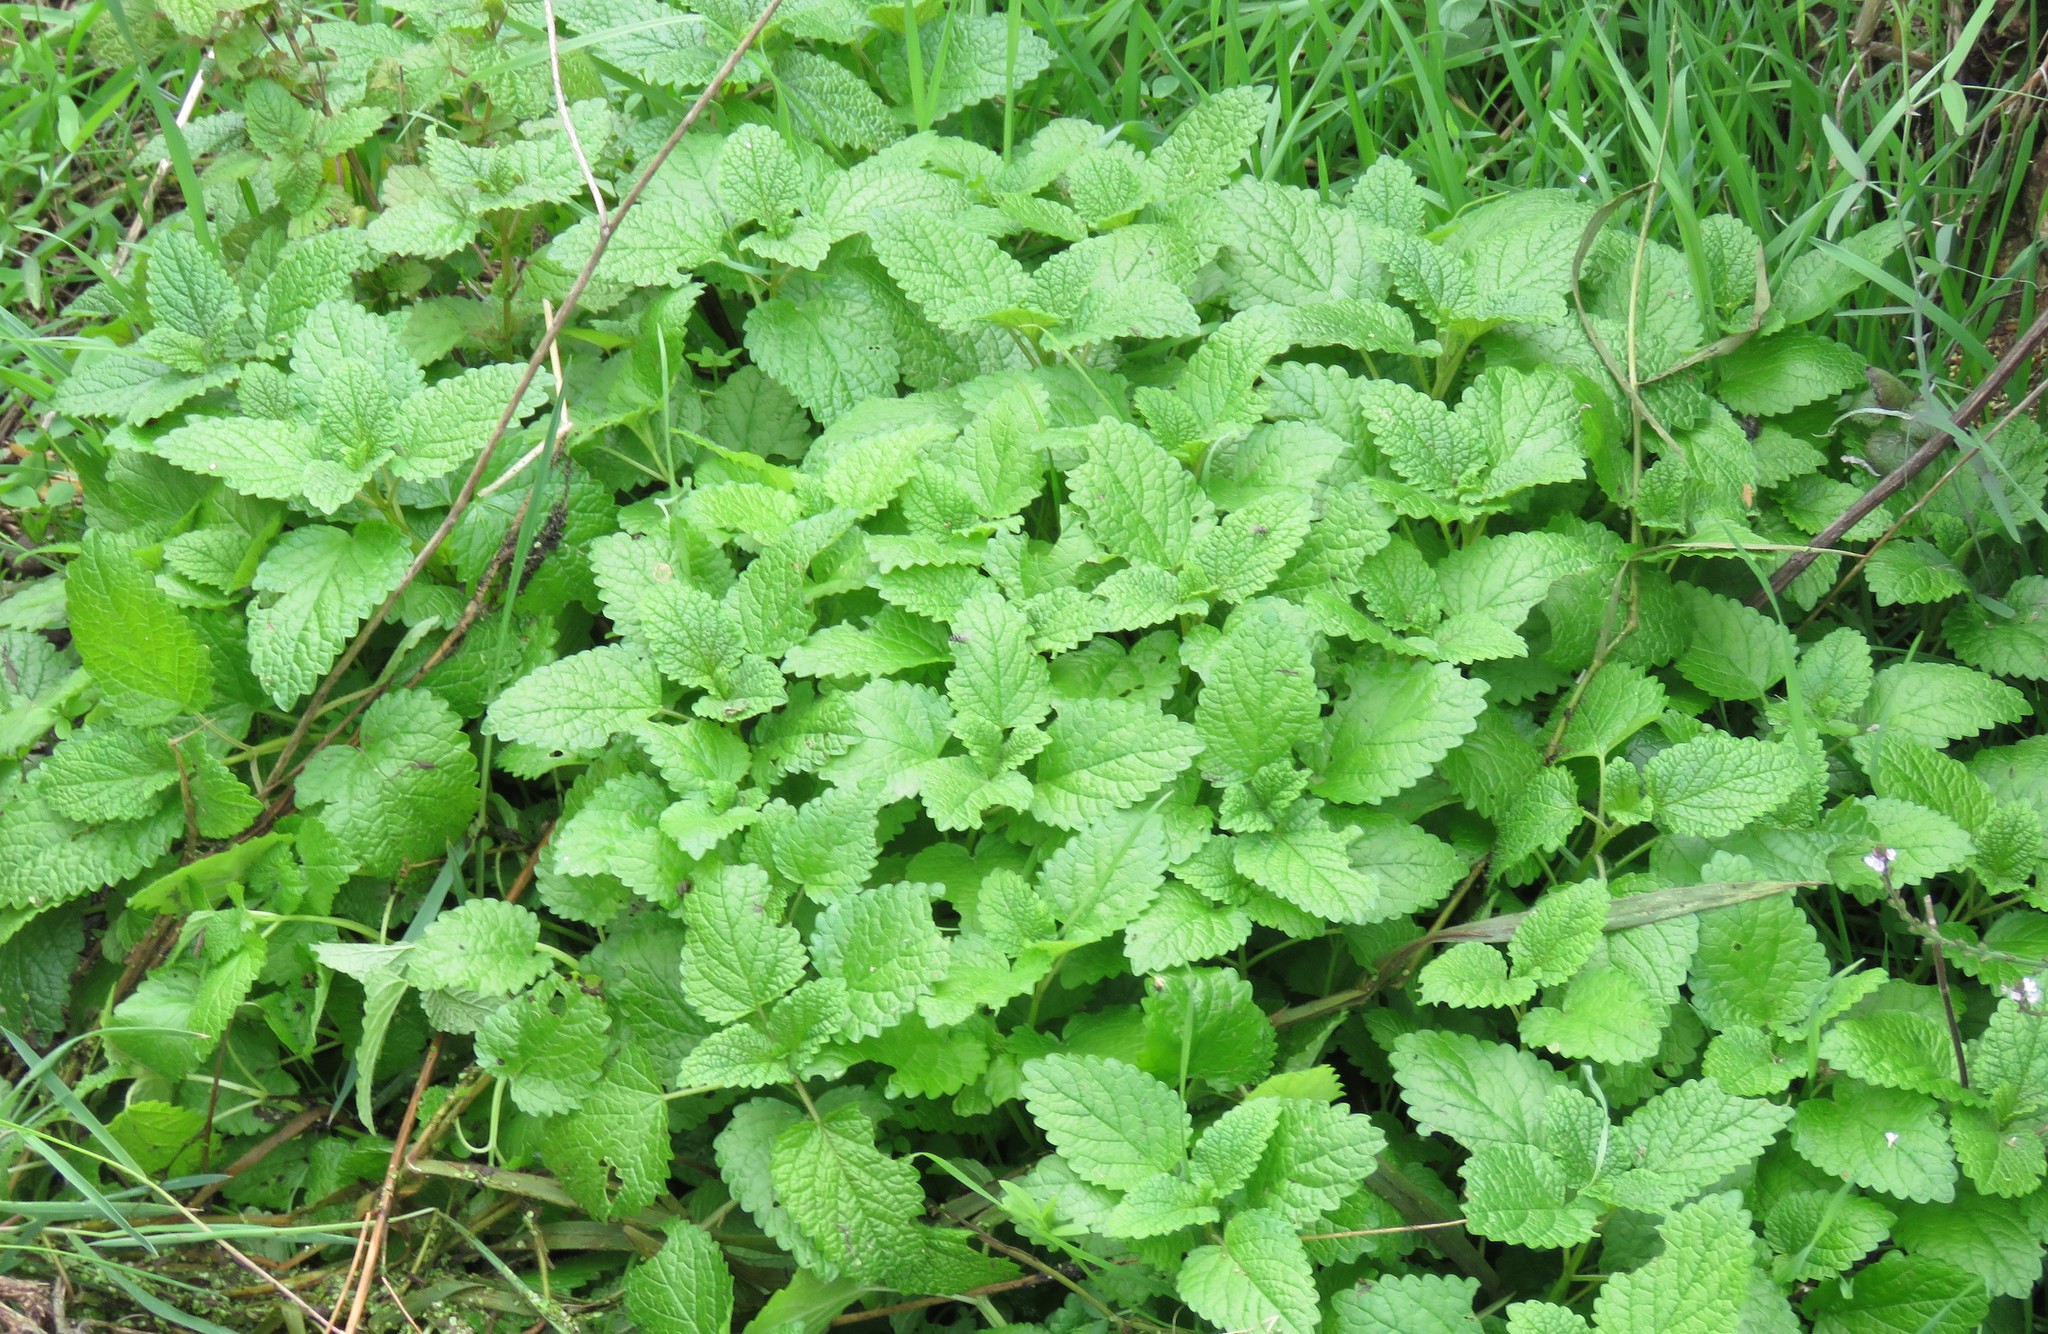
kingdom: Plantae
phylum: Tracheophyta
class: Magnoliopsida
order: Lamiales
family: Lamiaceae
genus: Melissa
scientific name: Melissa officinalis
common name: Balm
